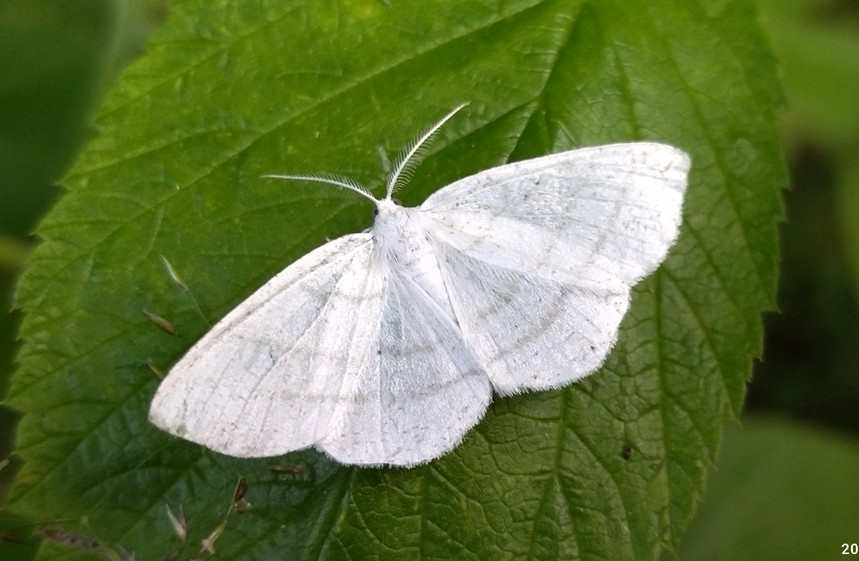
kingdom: Animalia
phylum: Arthropoda
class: Insecta
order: Lepidoptera
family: Geometridae
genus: Cabera
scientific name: Cabera pusaria
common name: Common white wave
